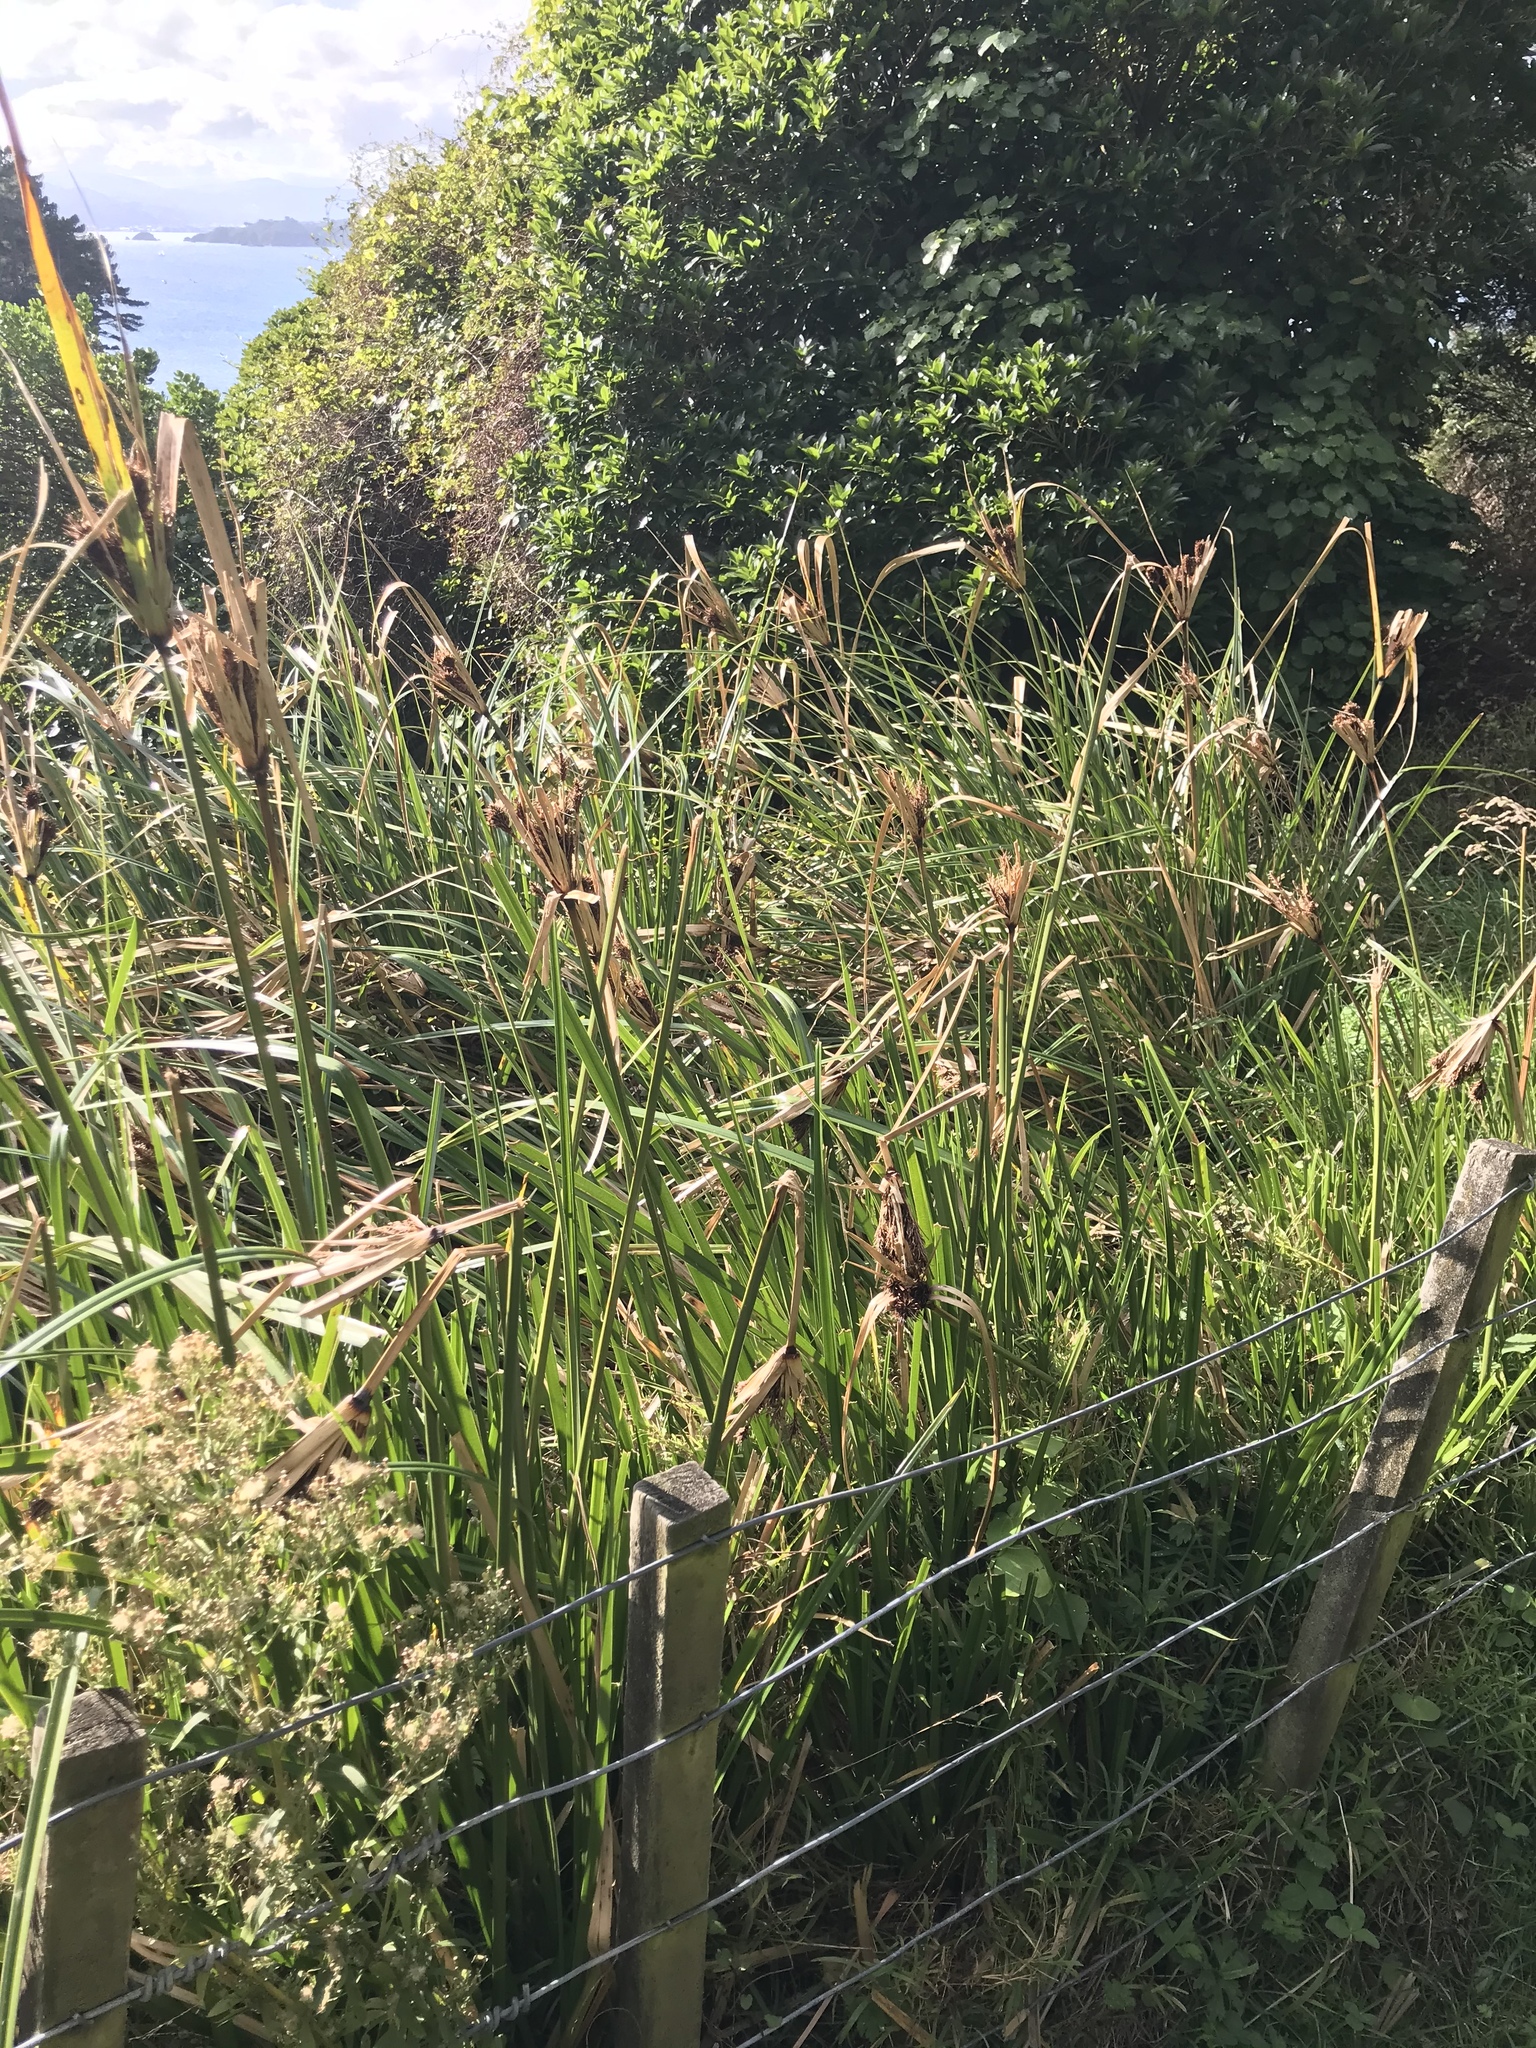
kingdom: Plantae
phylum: Tracheophyta
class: Liliopsida
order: Poales
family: Cyperaceae
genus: Cyperus
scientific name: Cyperus ustulatus
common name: Giant umbrella-sedge
